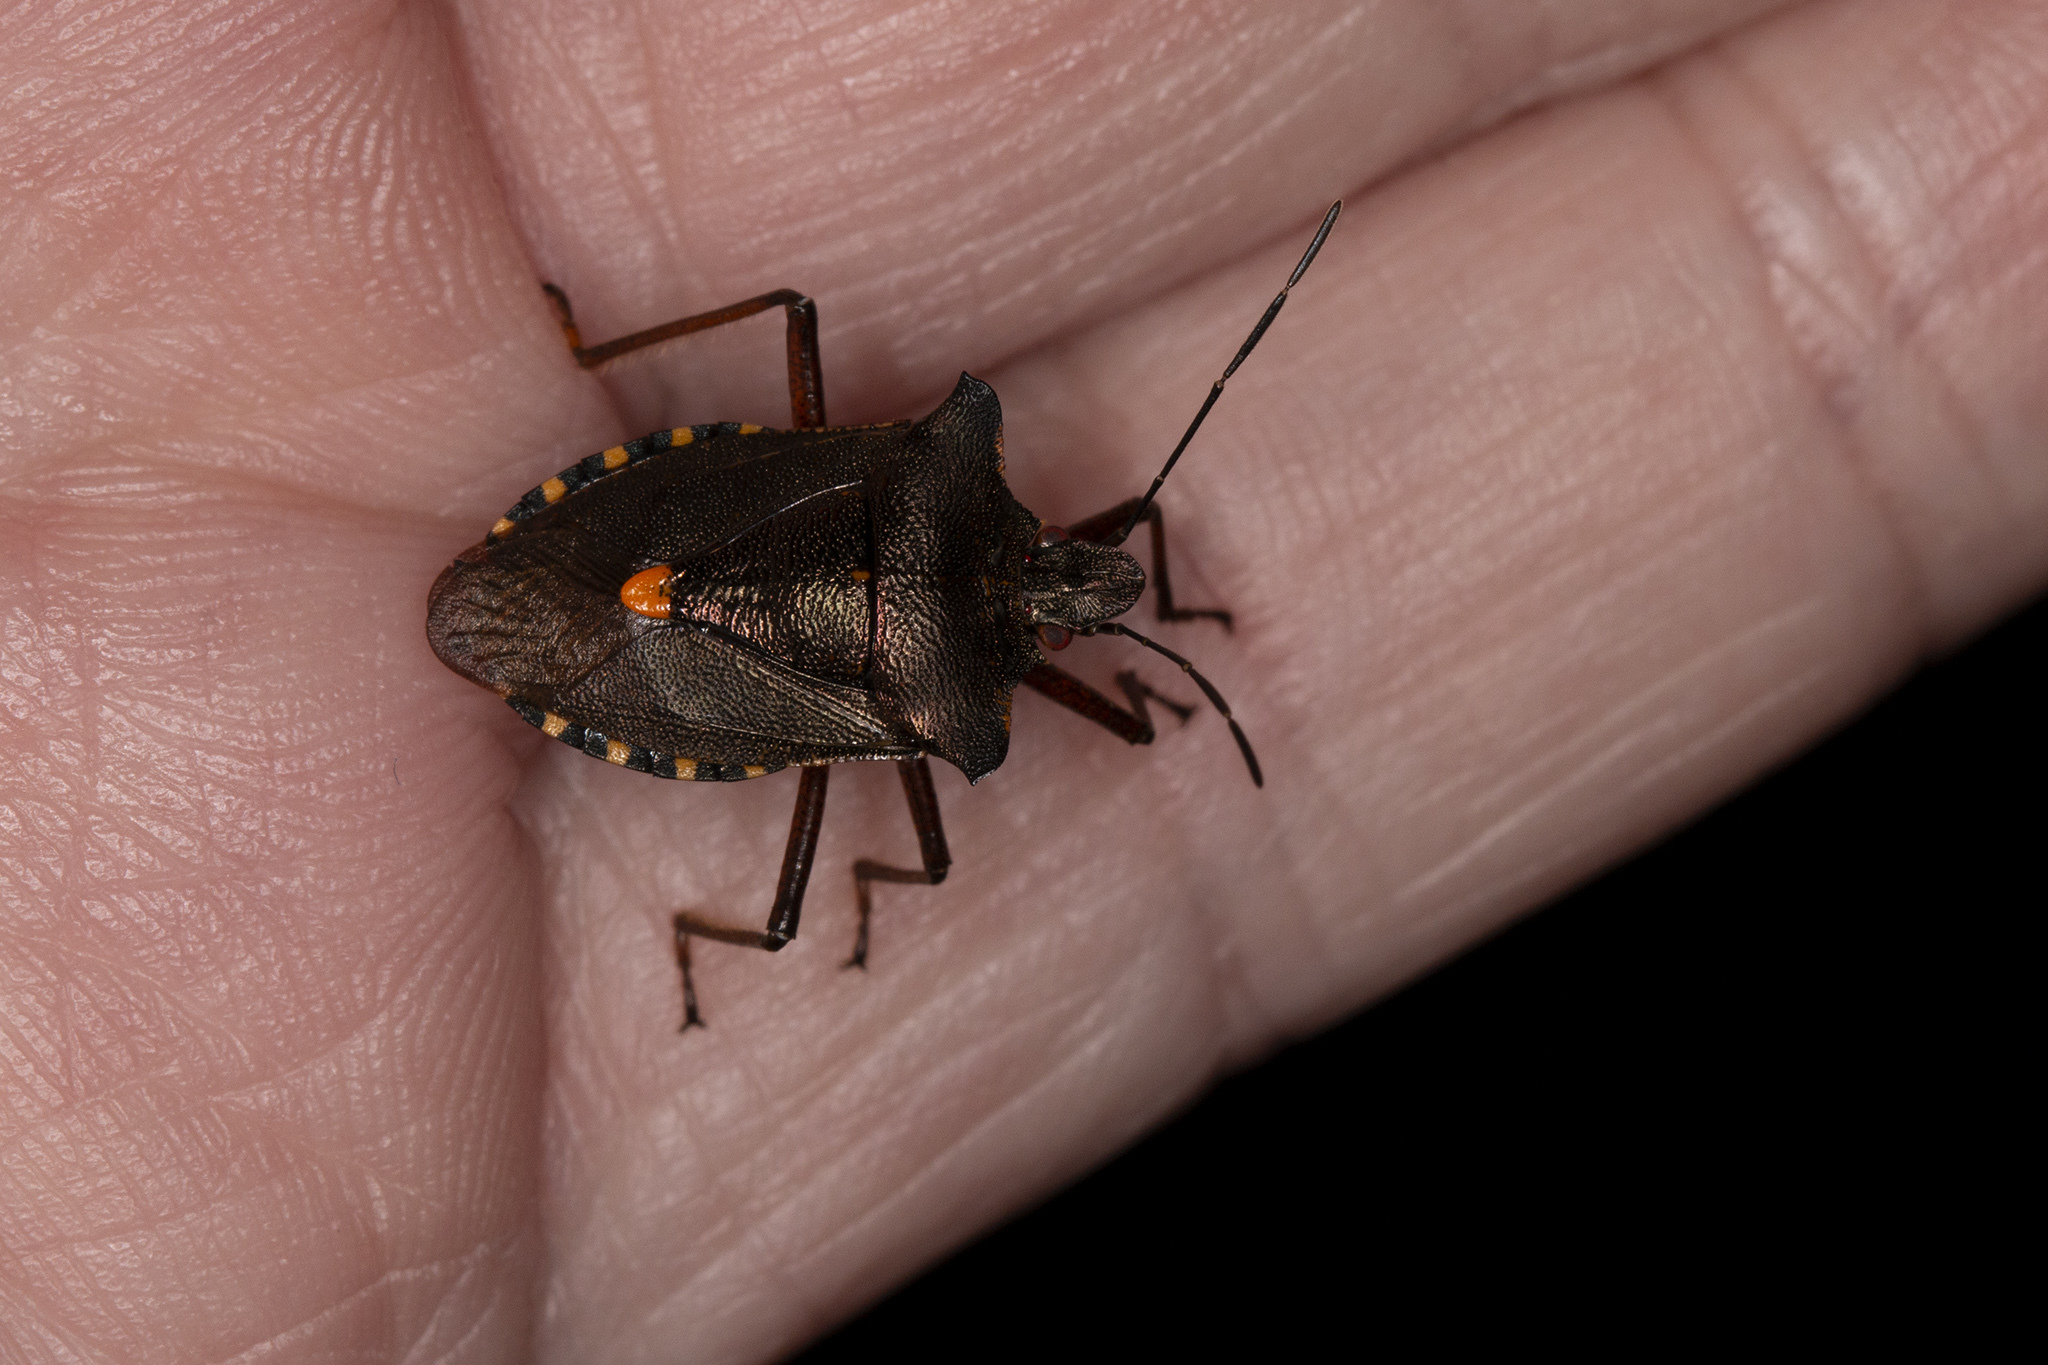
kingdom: Animalia
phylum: Arthropoda
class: Insecta
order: Hemiptera
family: Pentatomidae
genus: Pentatoma
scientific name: Pentatoma rufipes
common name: Forest bug
